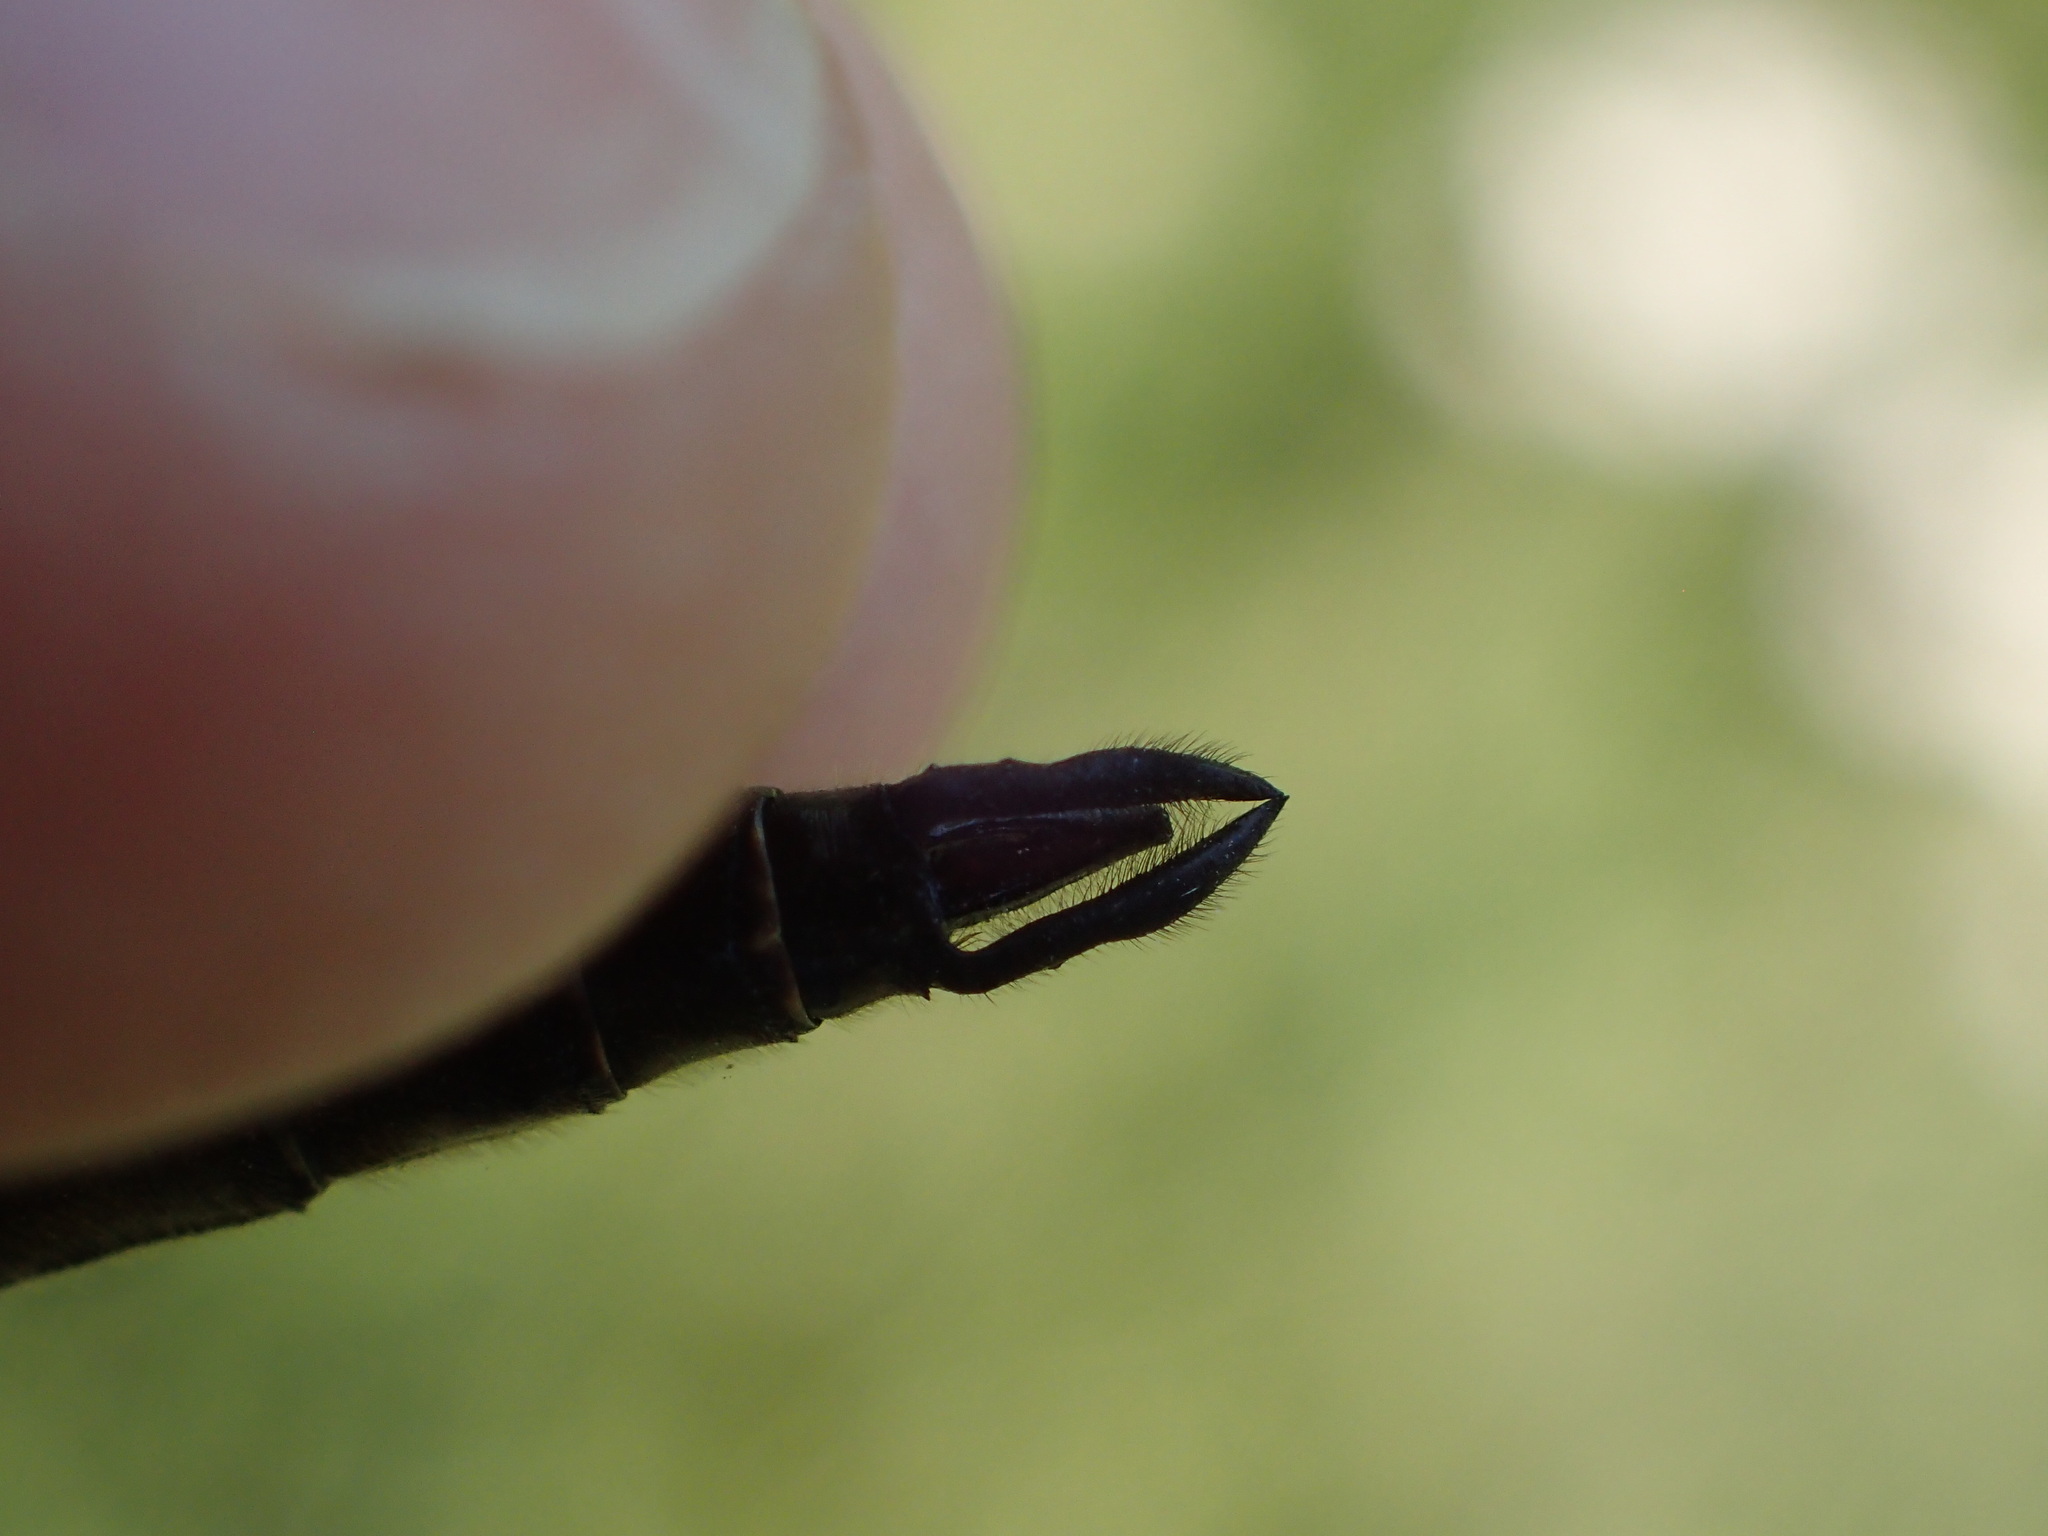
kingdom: Animalia
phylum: Arthropoda
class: Insecta
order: Odonata
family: Corduliidae
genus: Somatochlora
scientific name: Somatochlora minor
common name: Ocellated emerald
